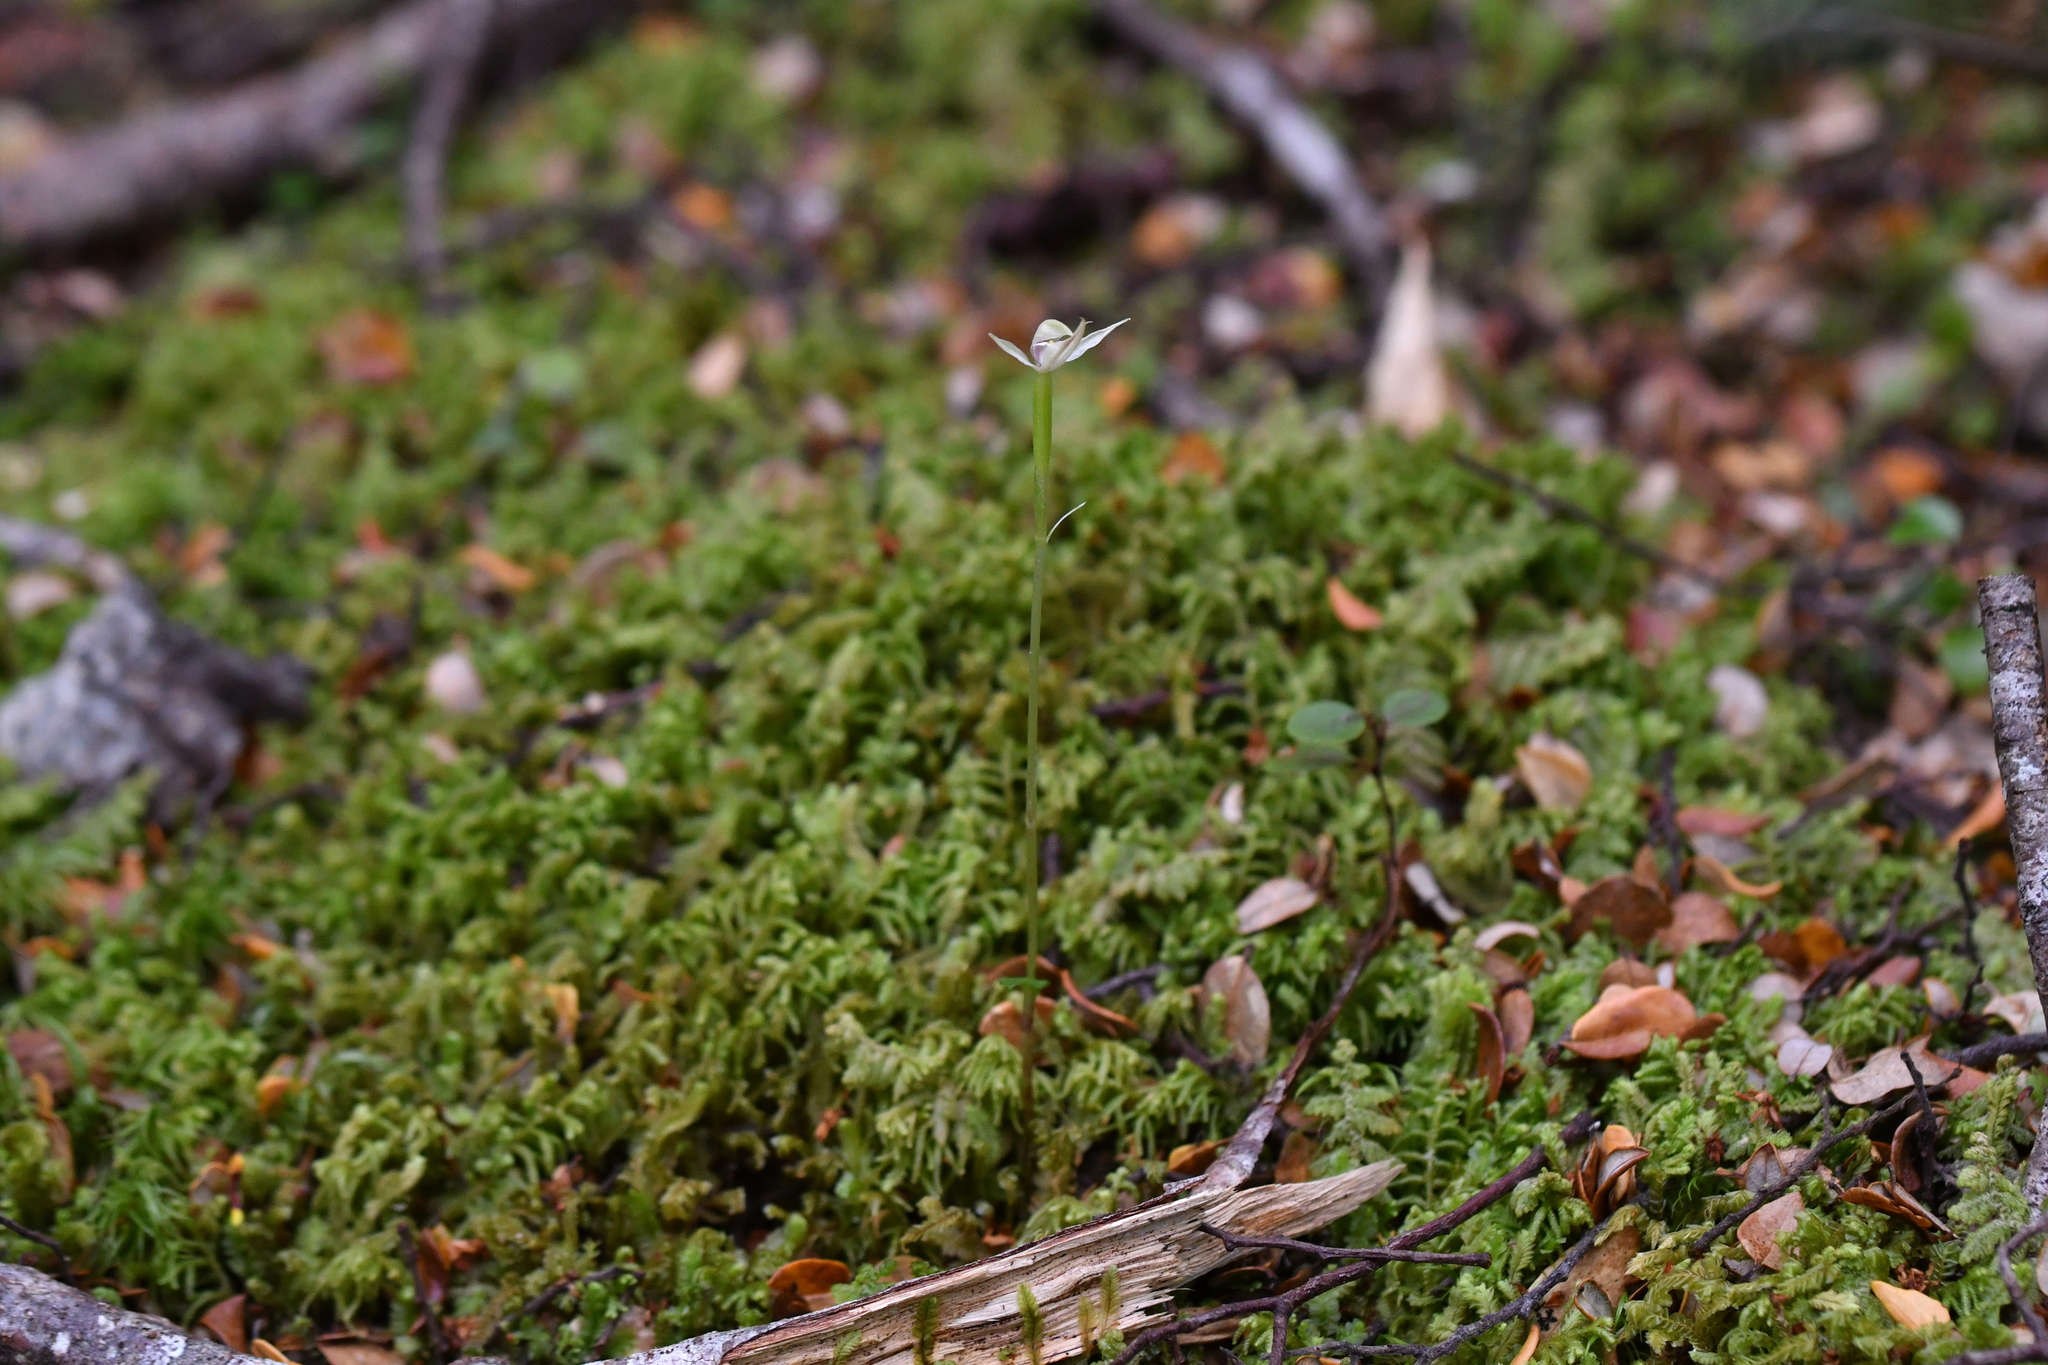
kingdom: Plantae
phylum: Tracheophyta
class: Liliopsida
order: Asparagales
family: Orchidaceae
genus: Adenochilus
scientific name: Adenochilus gracilis
